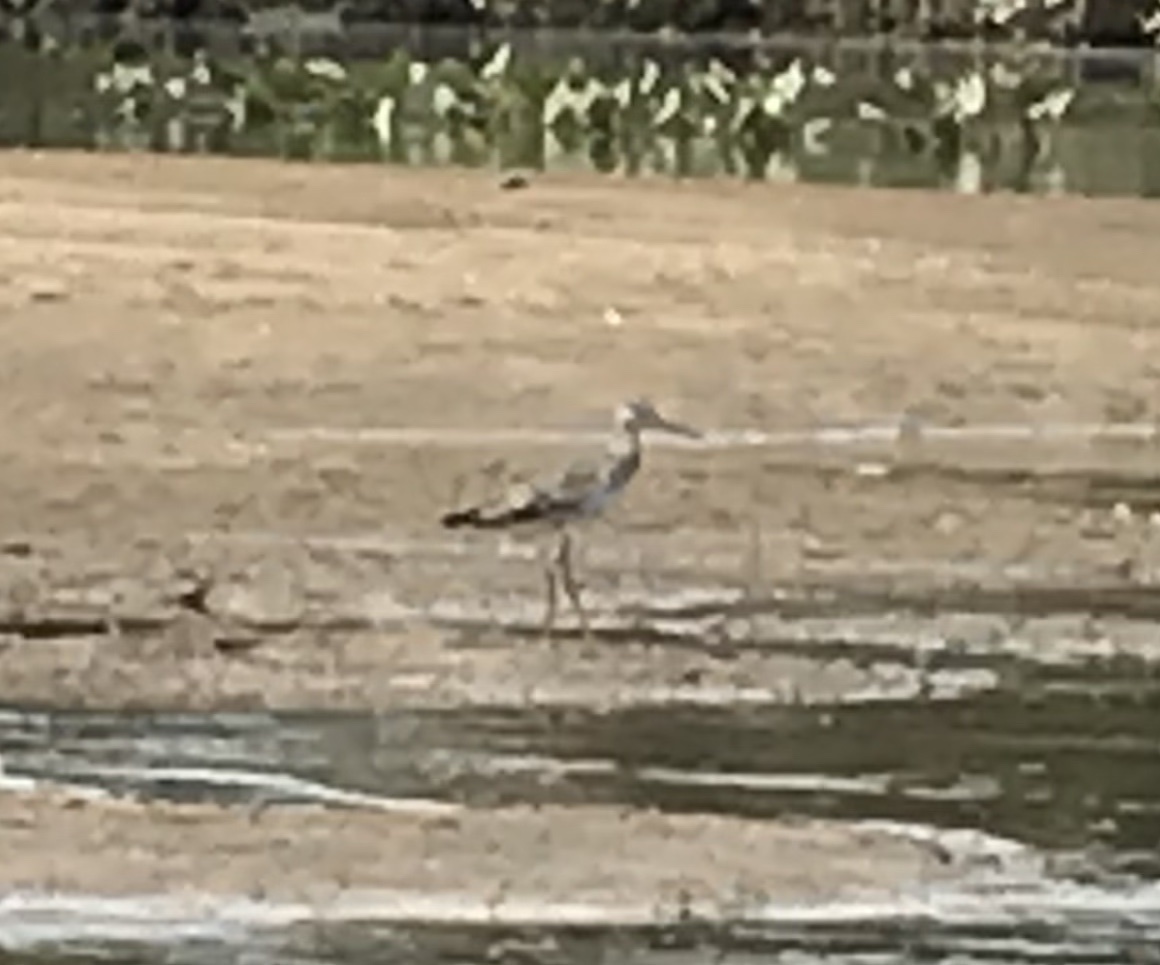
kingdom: Animalia
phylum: Chordata
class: Aves
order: Charadriiformes
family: Scolopacidae
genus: Tringa
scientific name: Tringa semipalmata
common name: Willet
